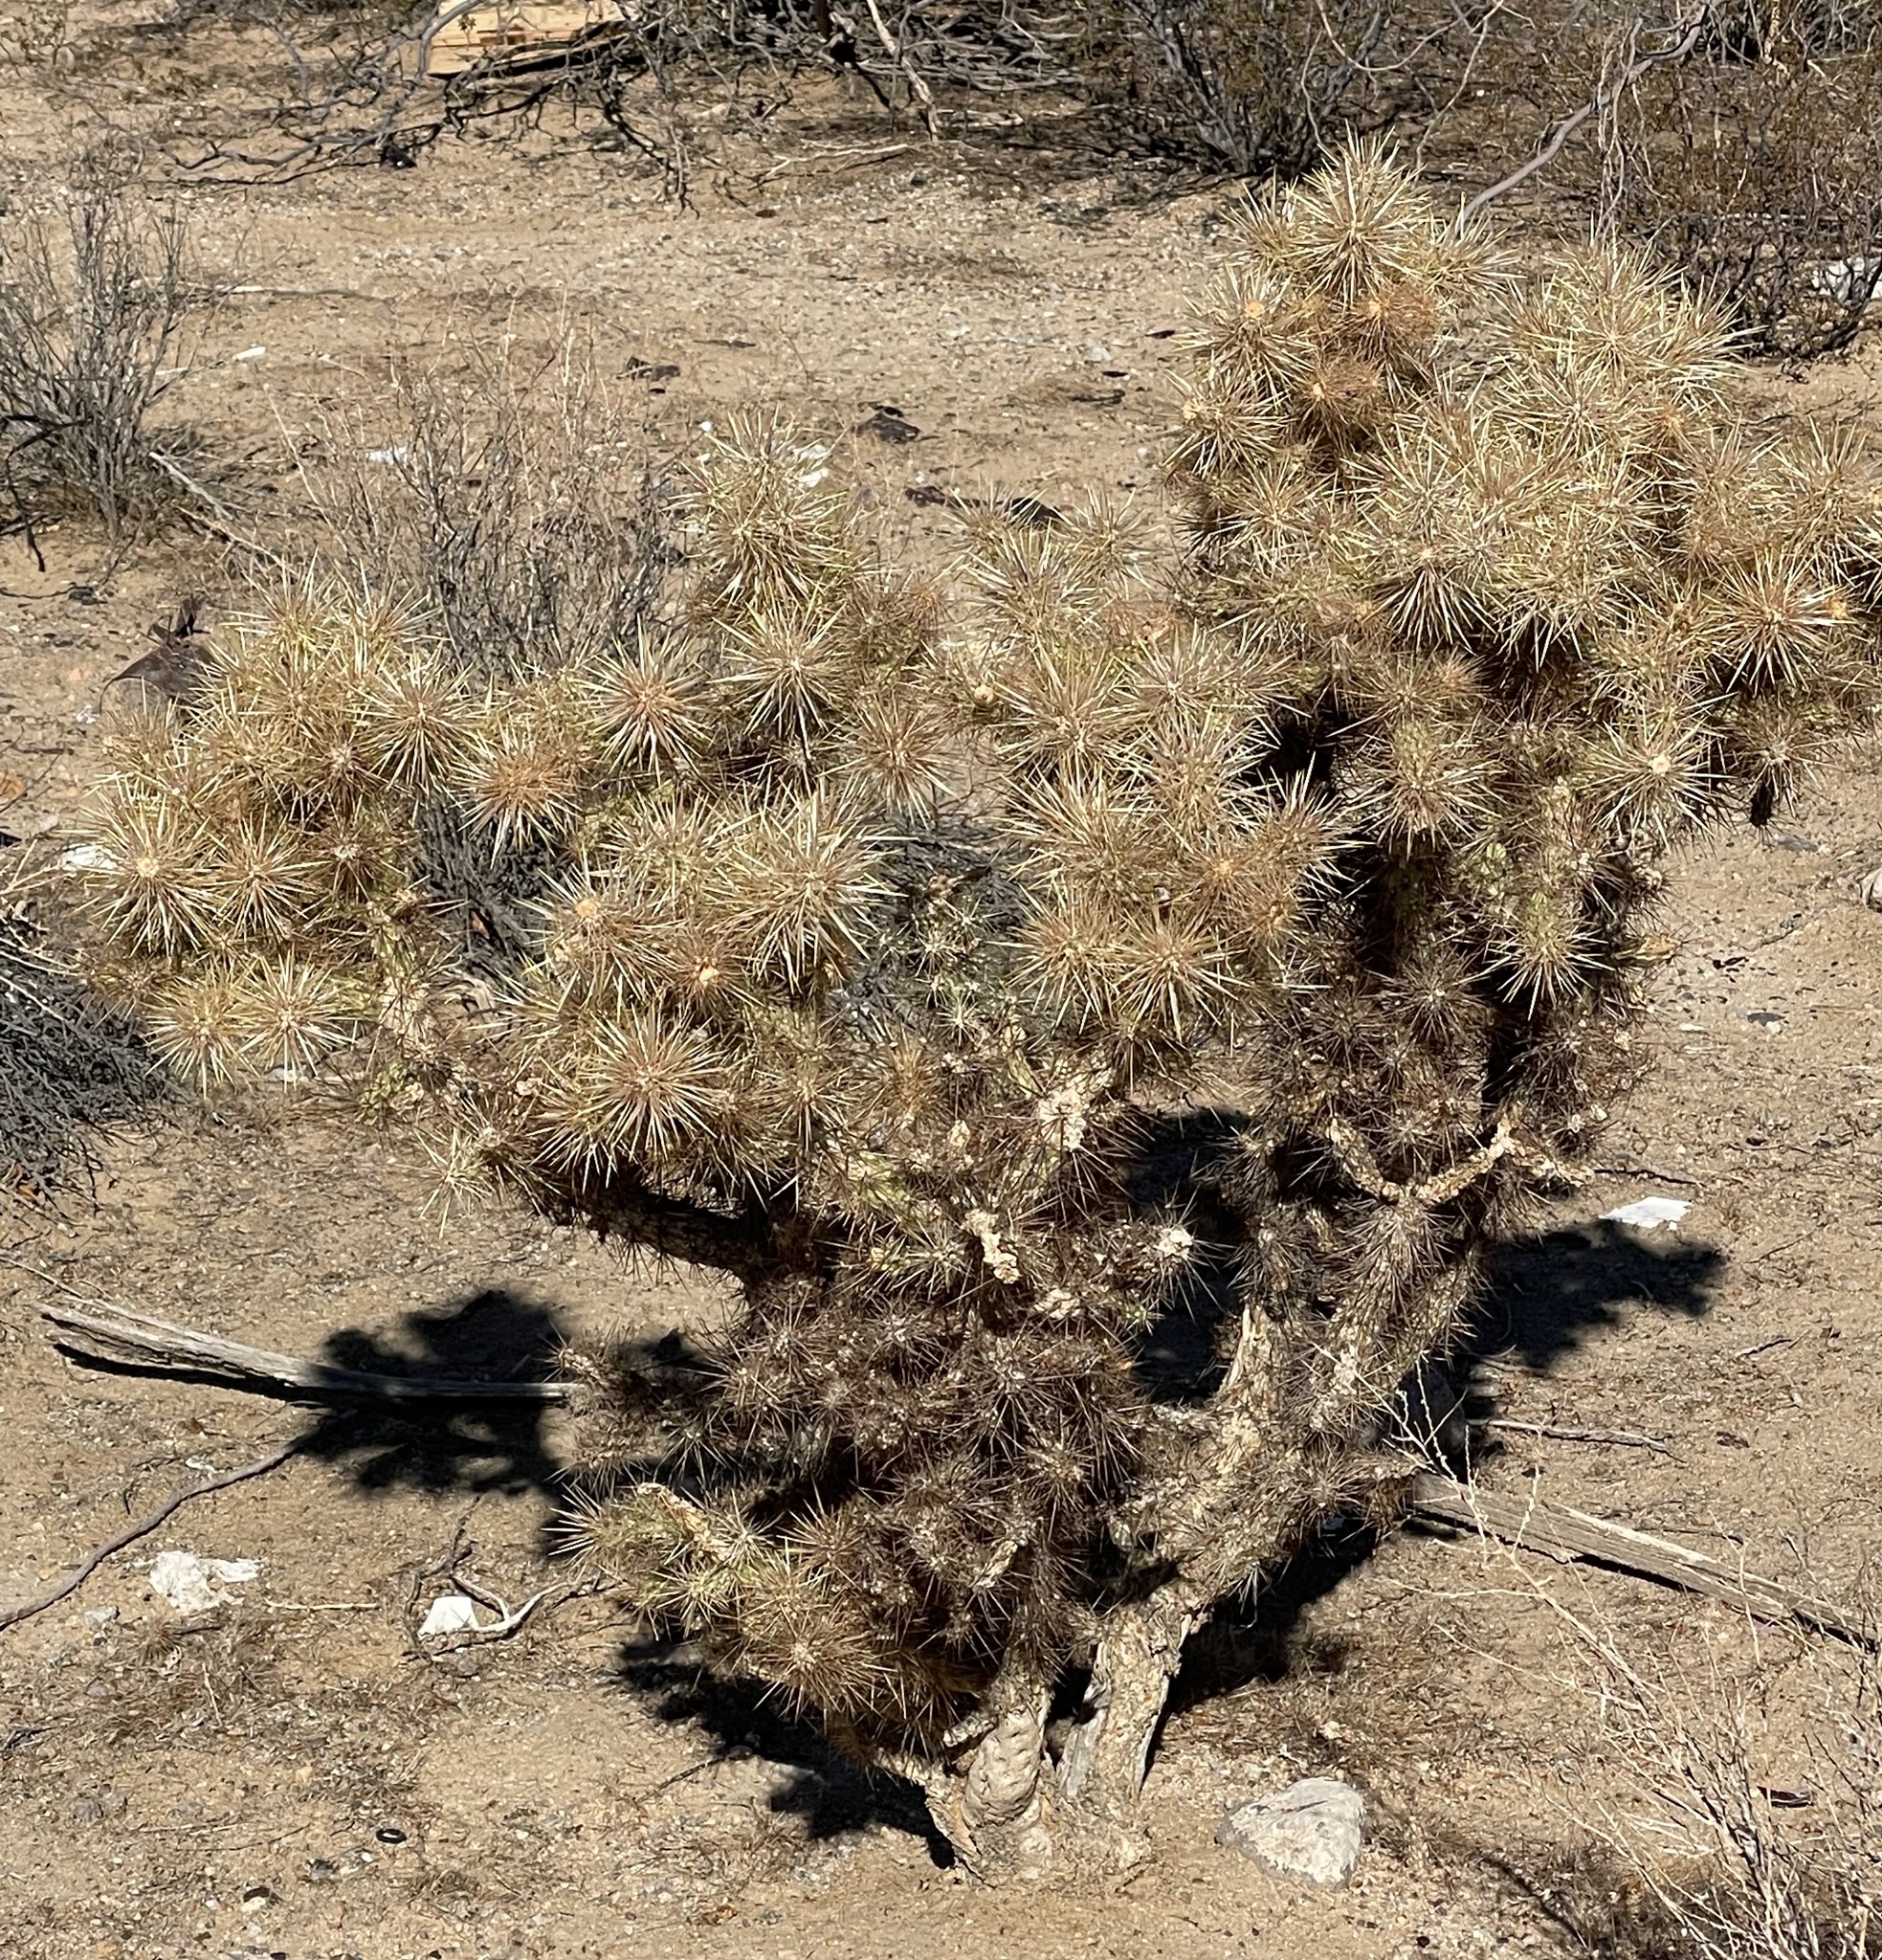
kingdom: Plantae
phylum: Tracheophyta
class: Magnoliopsida
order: Caryophyllales
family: Cactaceae
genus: Cylindropuntia
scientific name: Cylindropuntia echinocarpa
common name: Ground cholla
